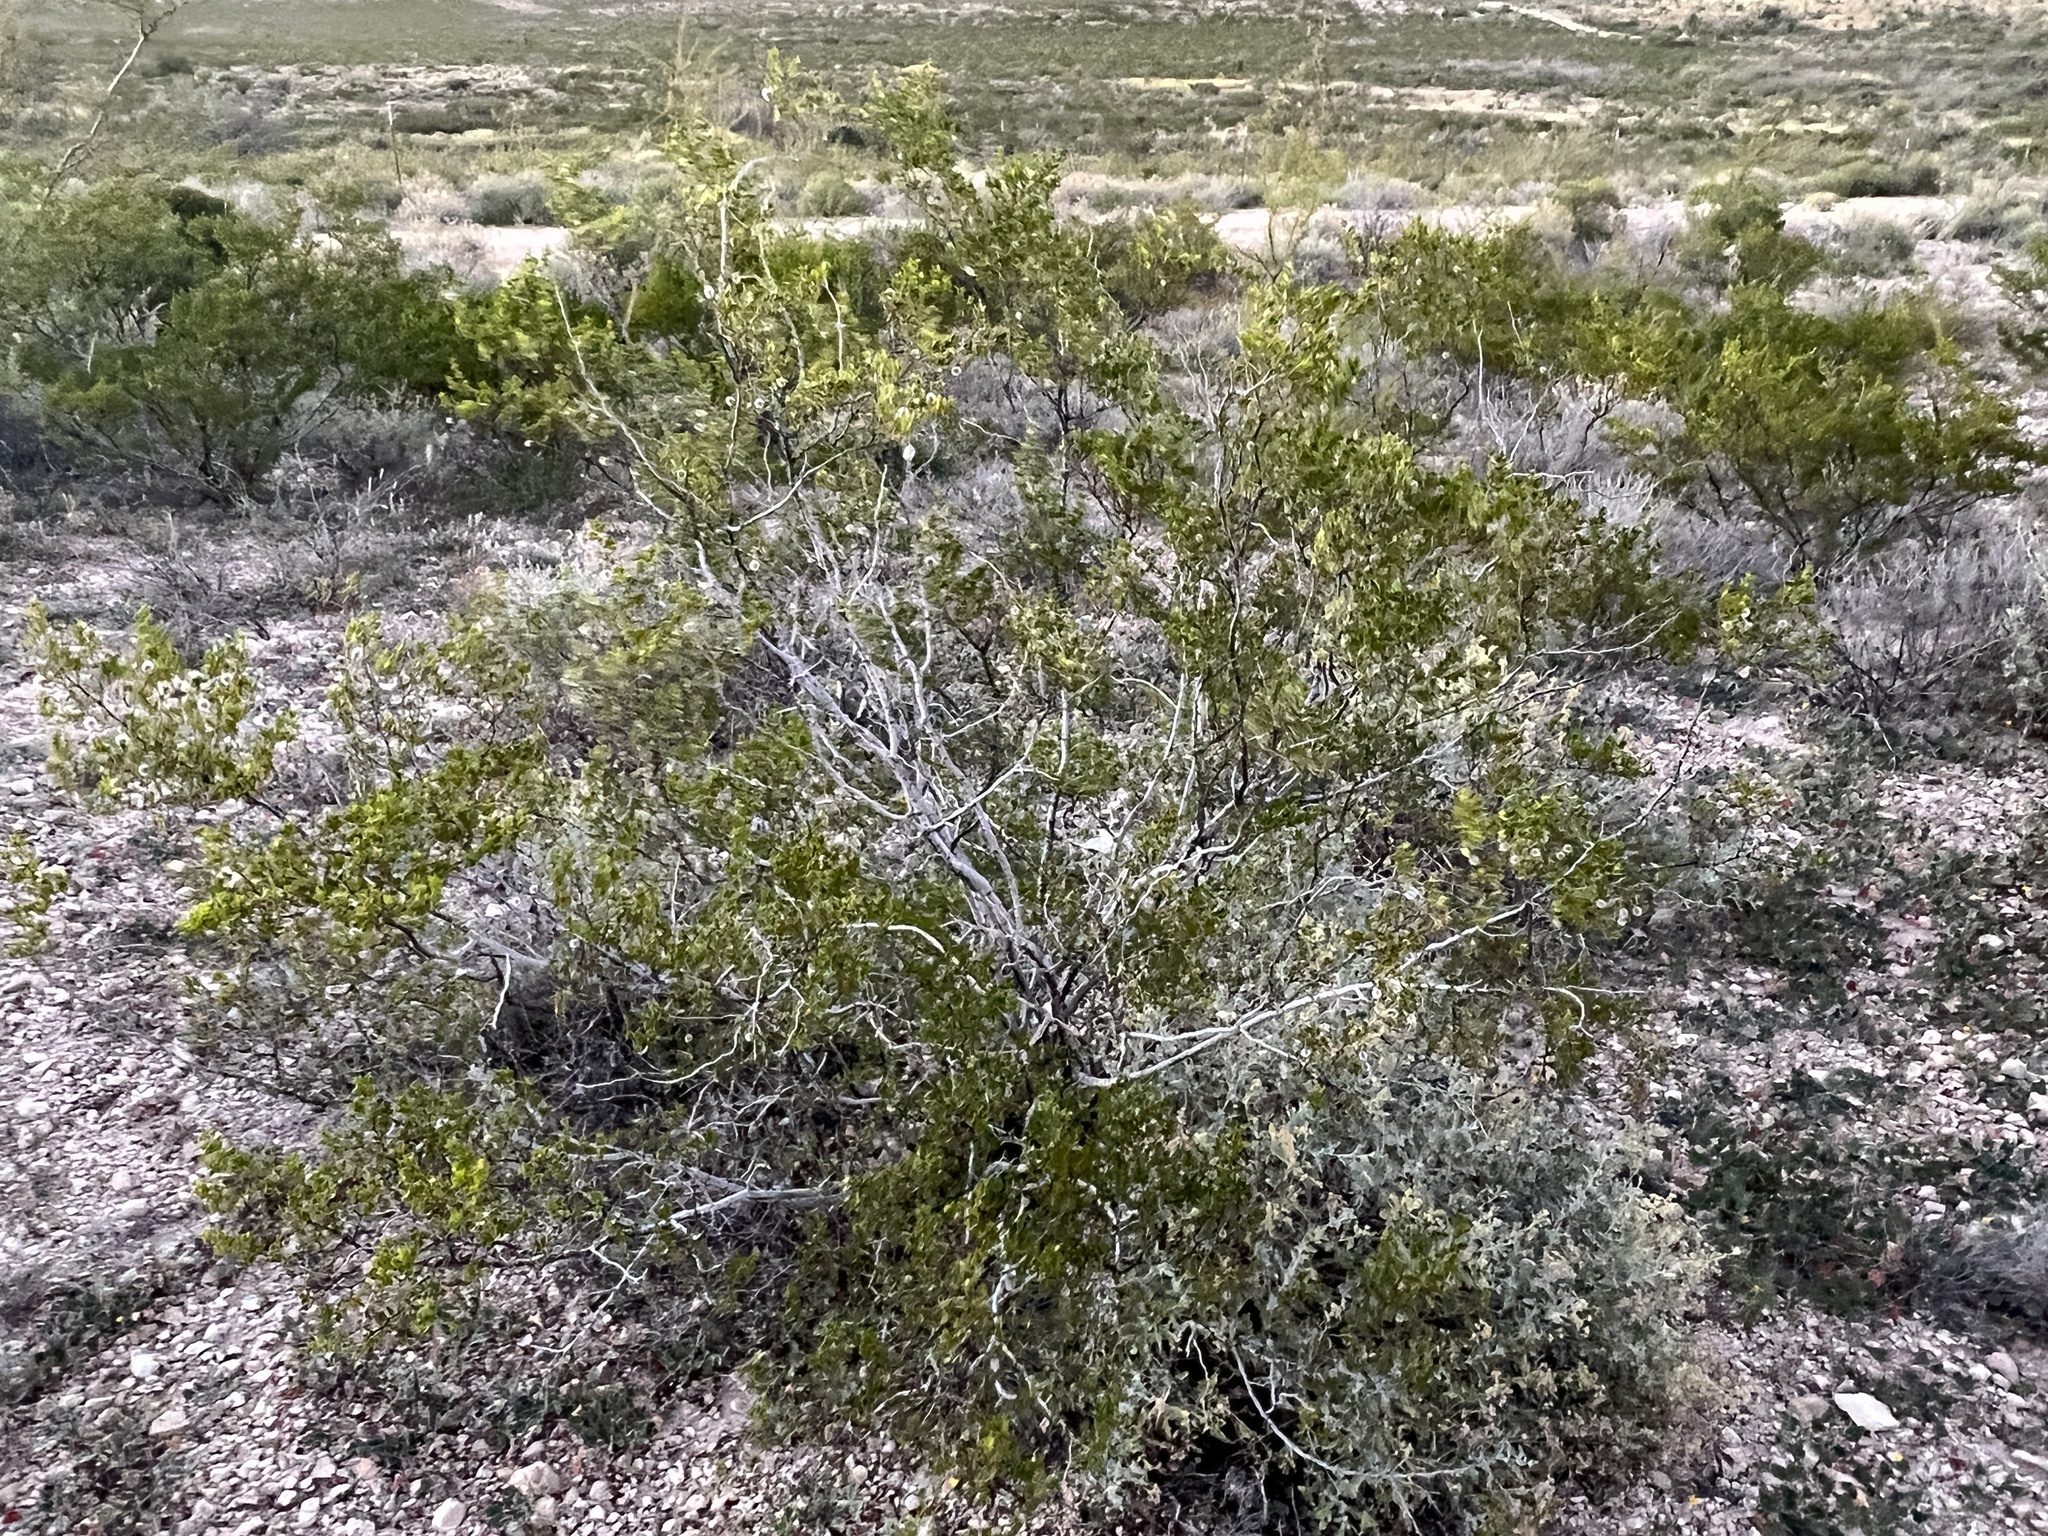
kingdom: Plantae
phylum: Tracheophyta
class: Magnoliopsida
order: Zygophyllales
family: Zygophyllaceae
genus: Larrea
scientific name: Larrea tridentata
